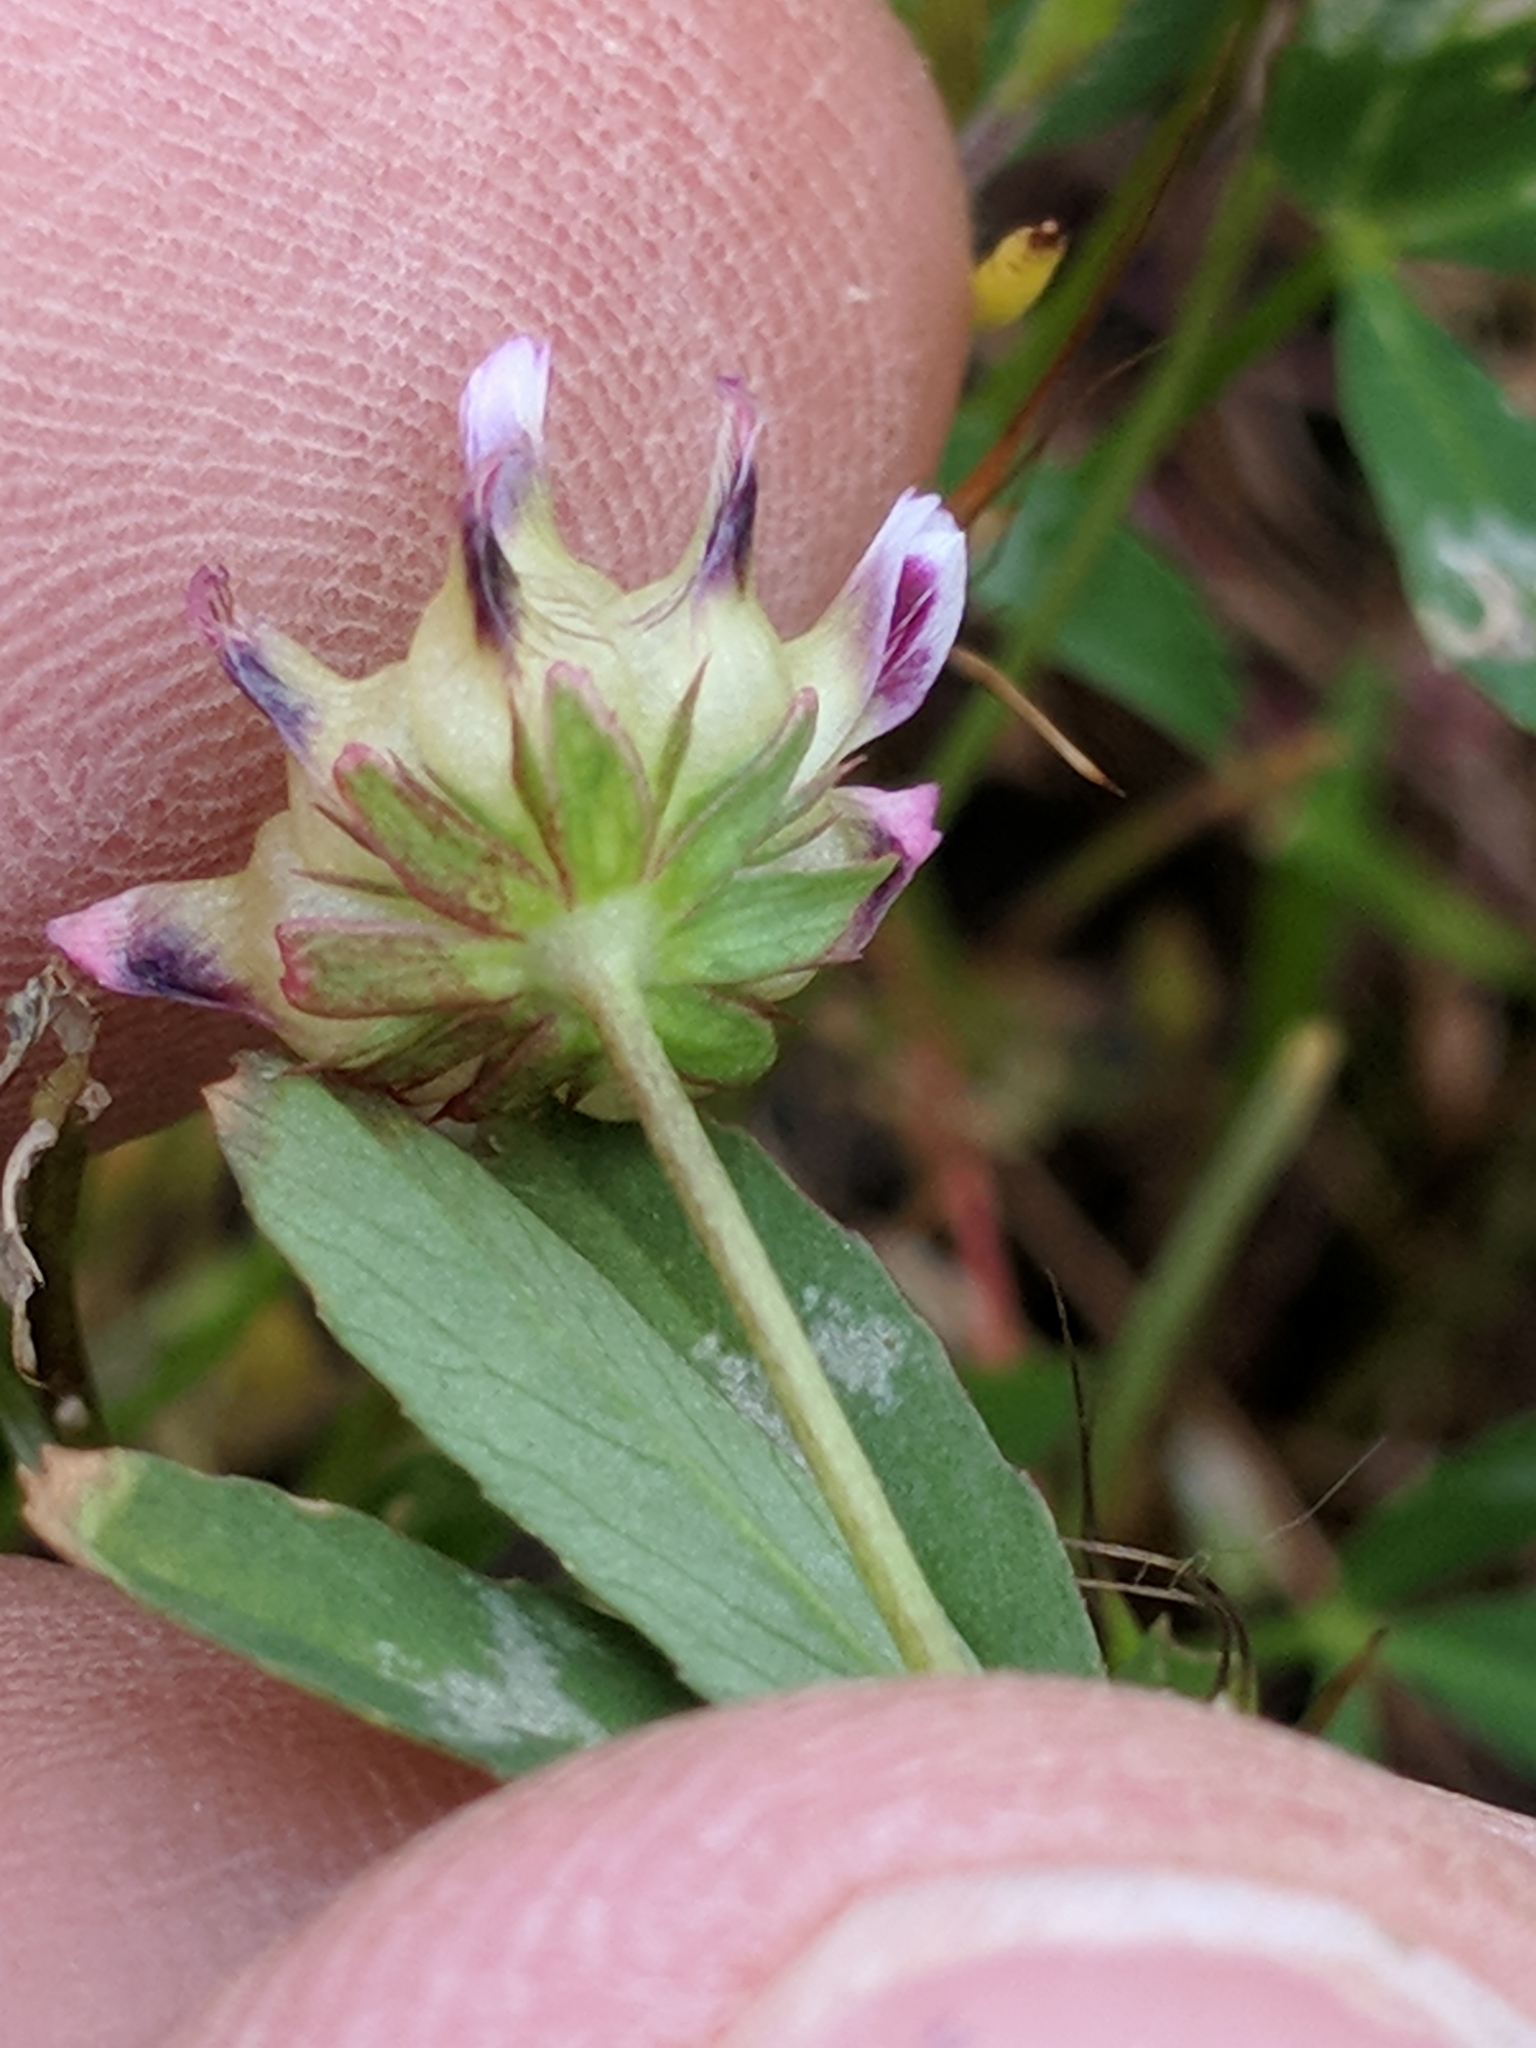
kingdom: Plantae
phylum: Tracheophyta
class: Magnoliopsida
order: Fabales
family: Fabaceae
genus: Trifolium
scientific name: Trifolium depauperatum
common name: Poverty clover
